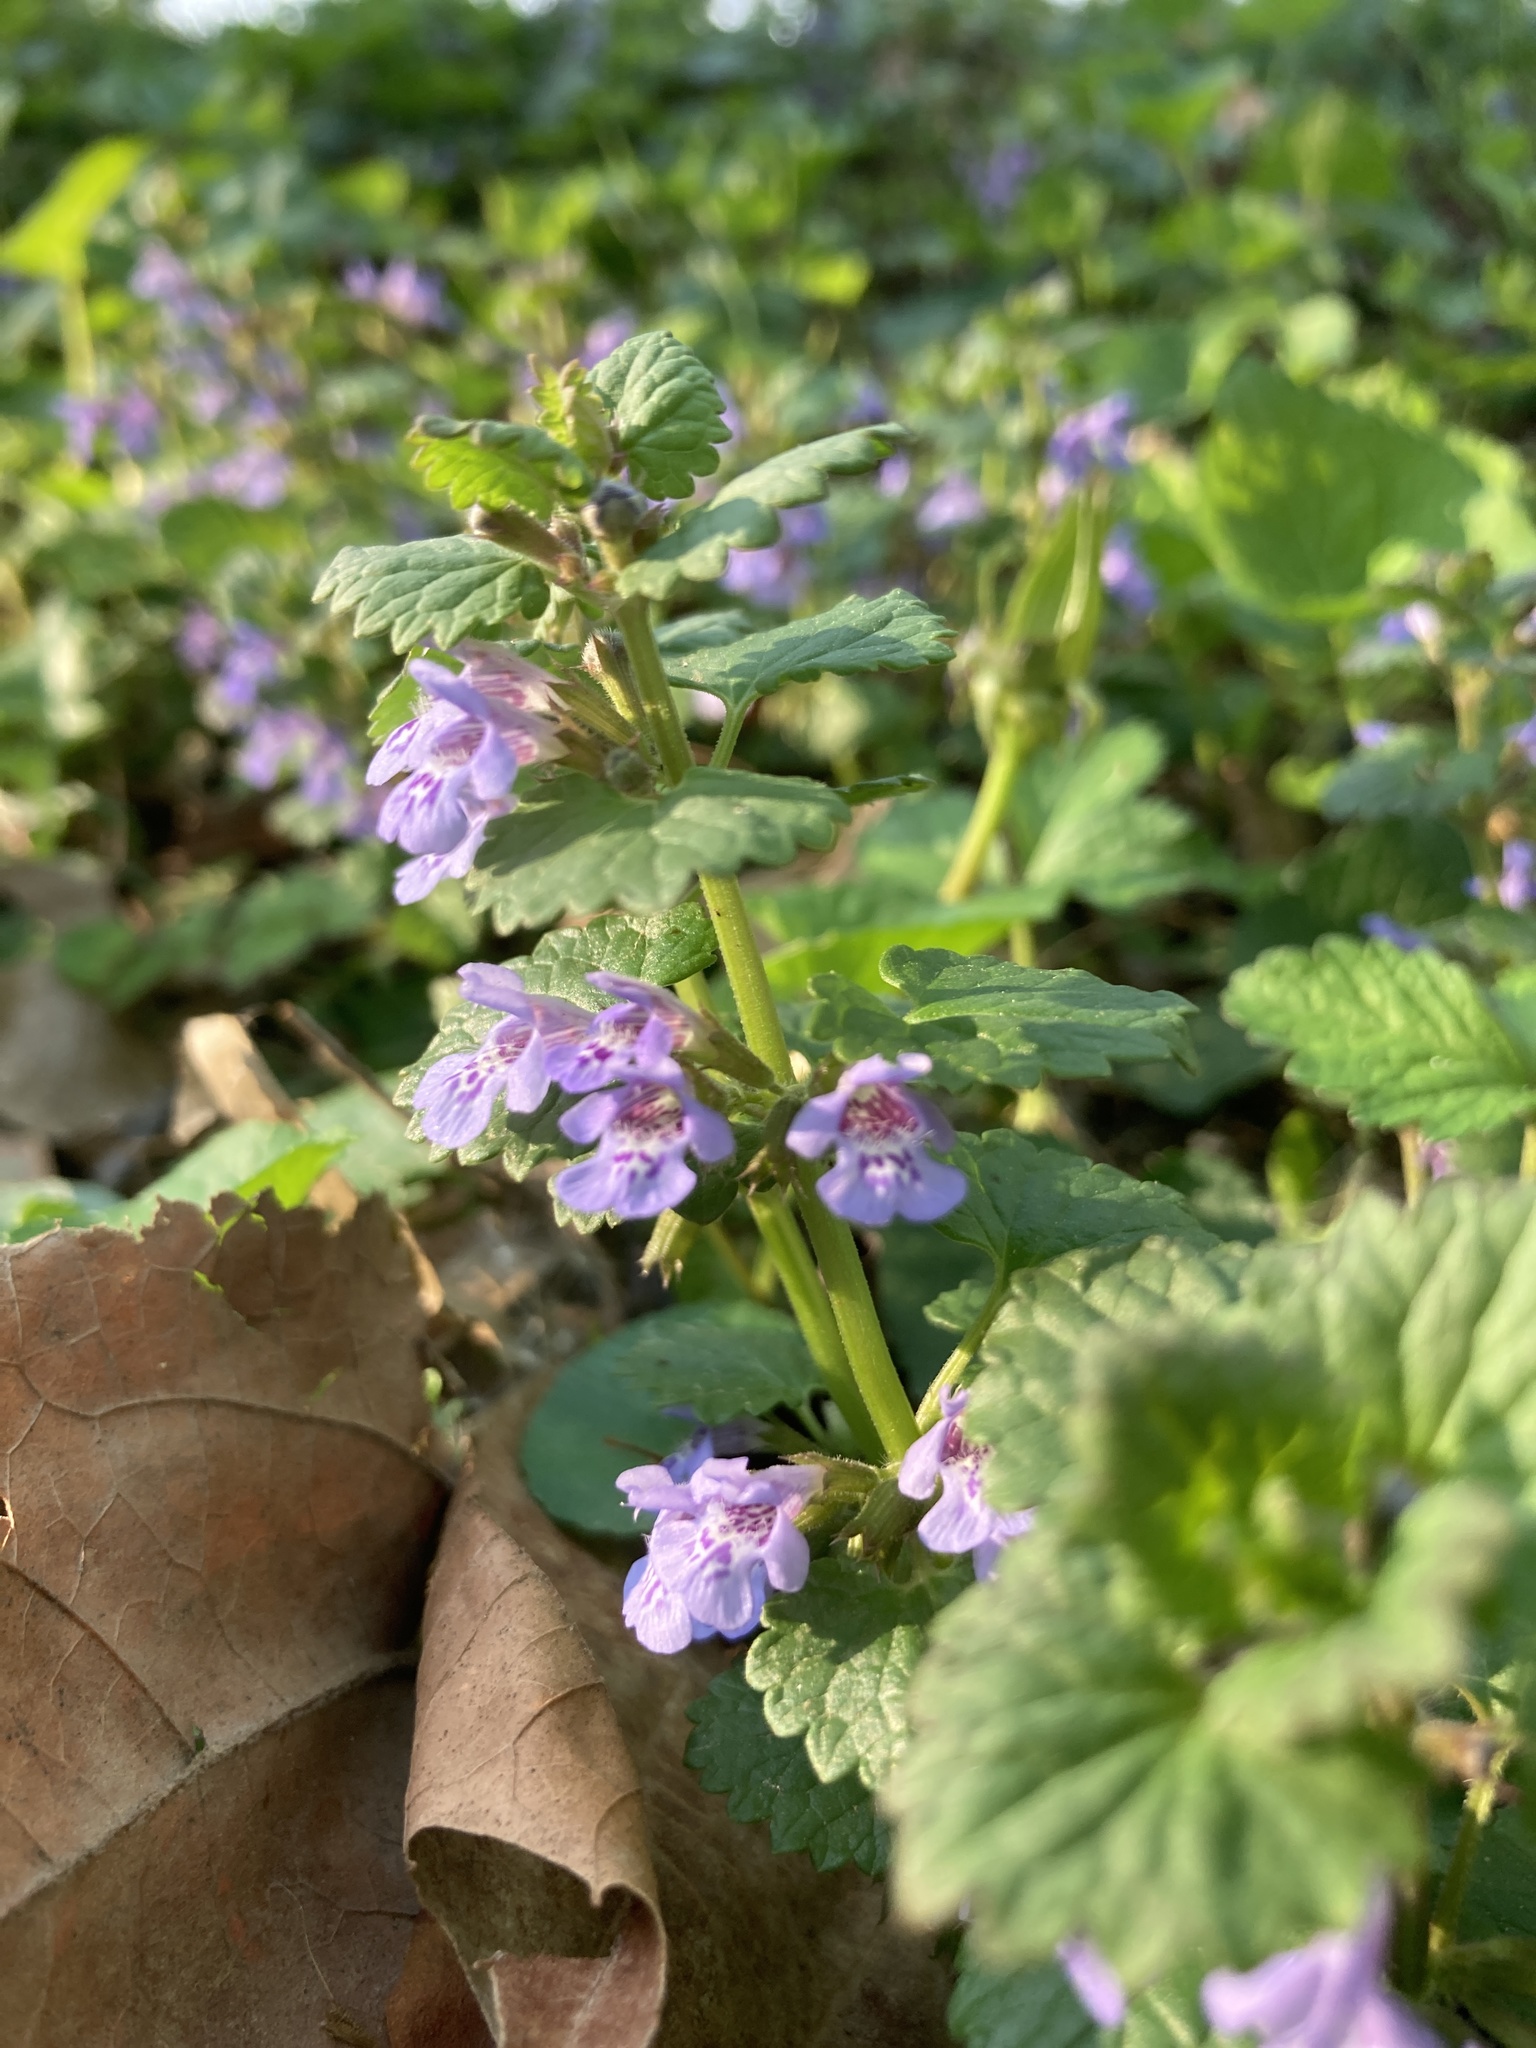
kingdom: Plantae
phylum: Tracheophyta
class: Magnoliopsida
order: Lamiales
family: Lamiaceae
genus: Glechoma
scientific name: Glechoma hederacea
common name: Ground ivy
